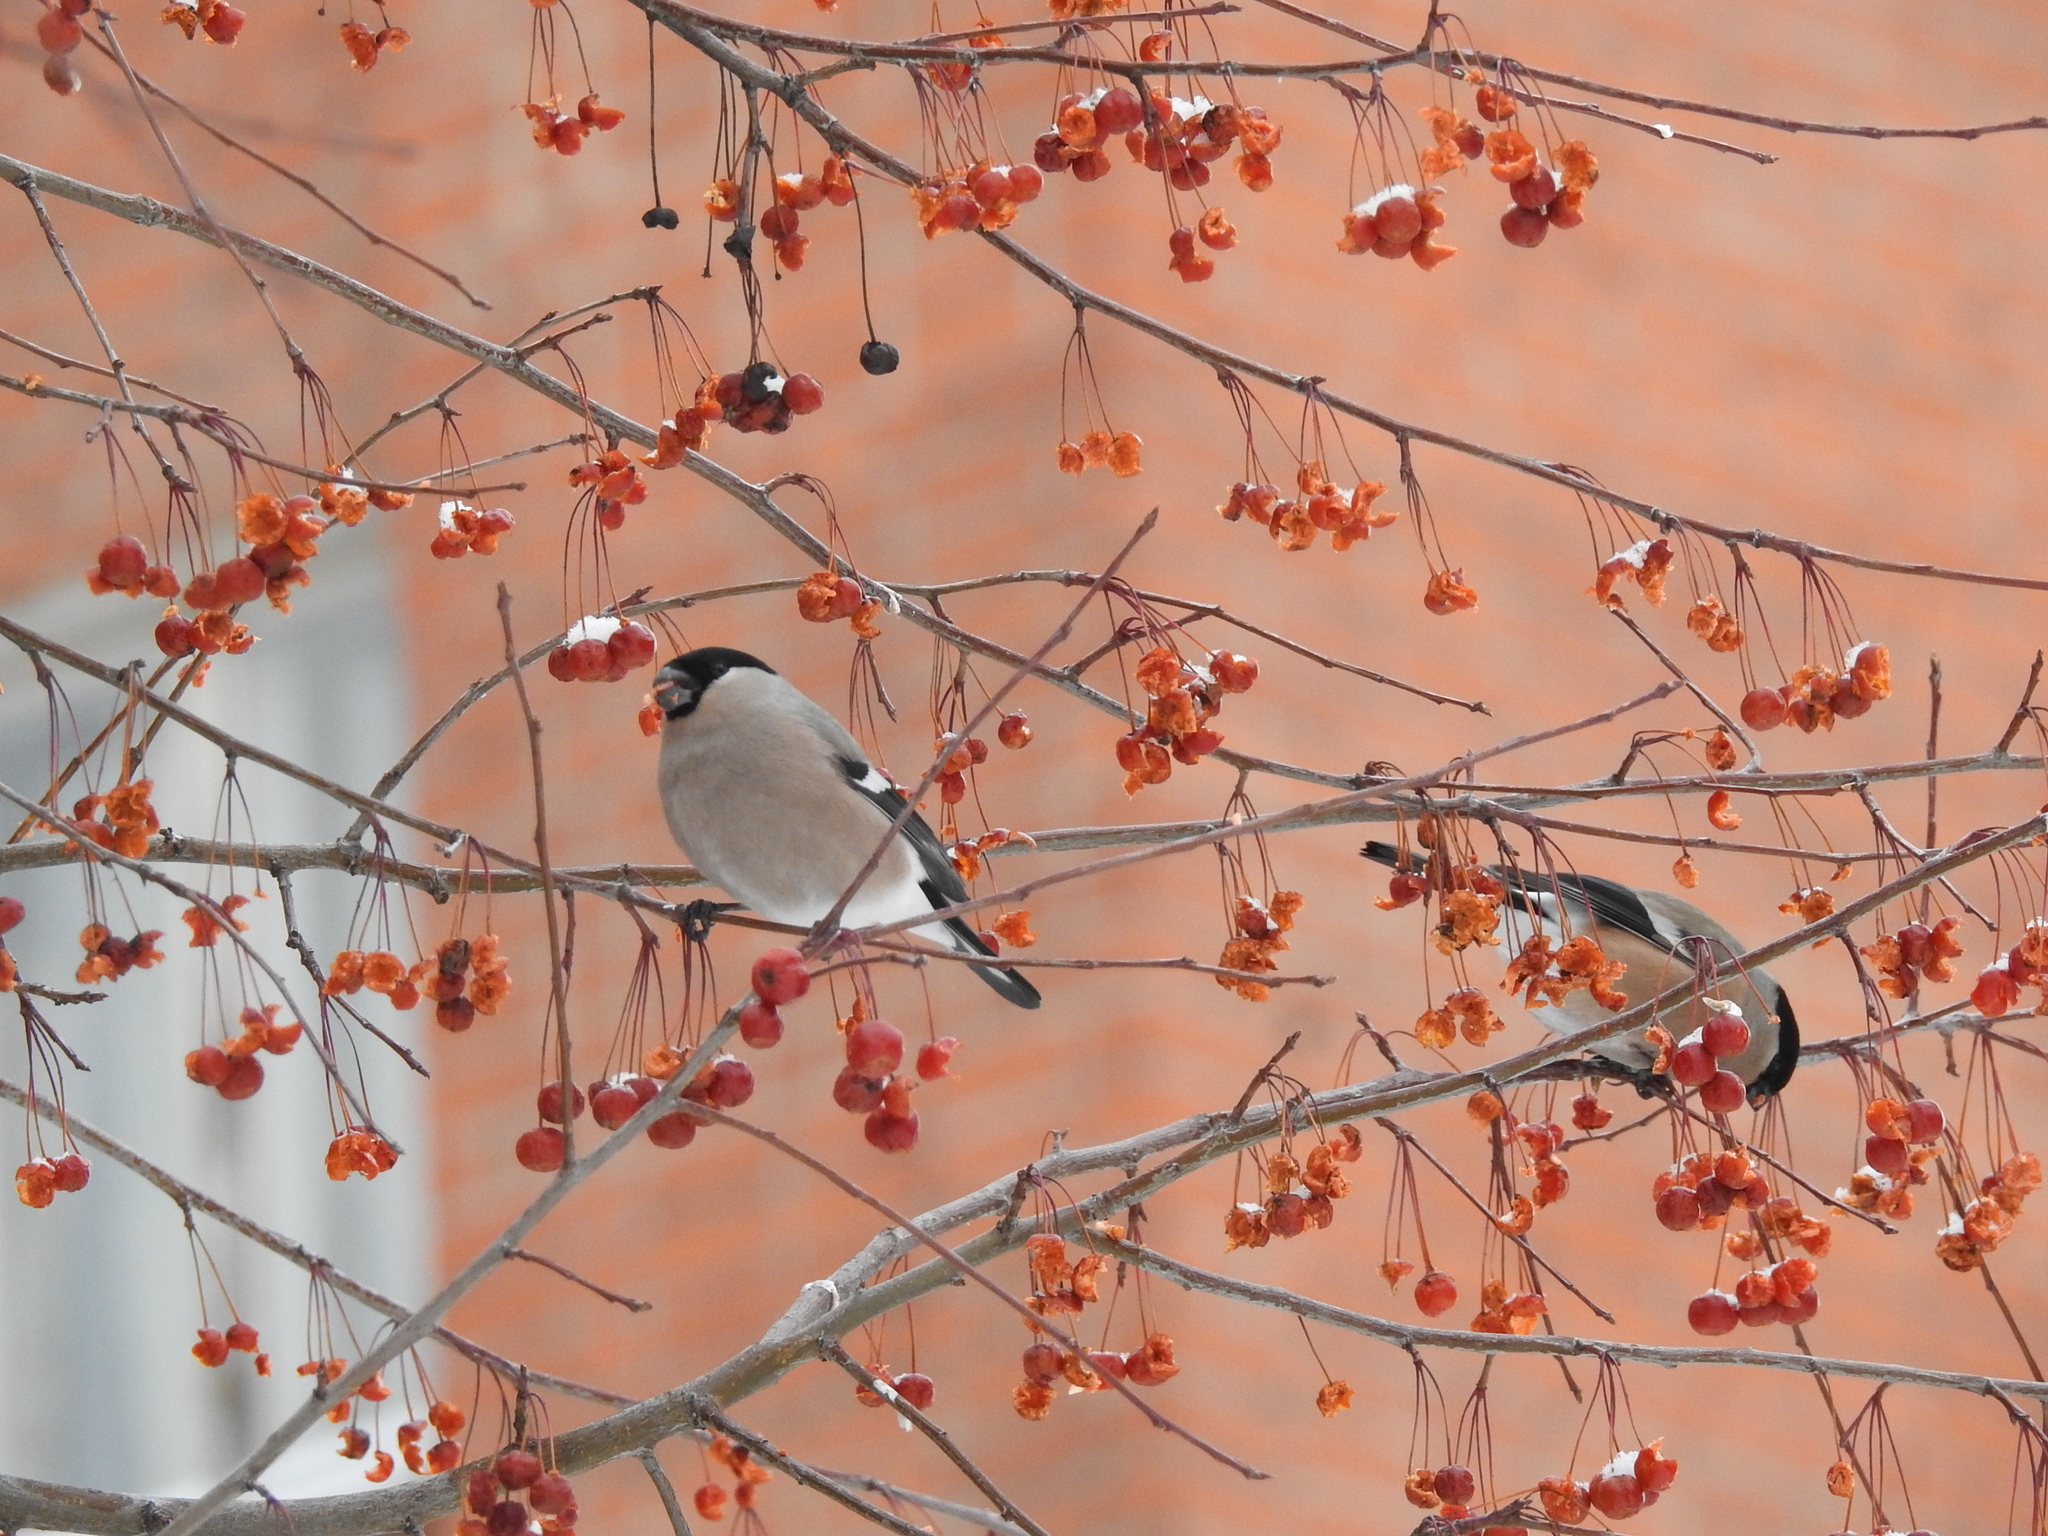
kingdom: Animalia
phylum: Chordata
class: Aves
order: Passeriformes
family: Fringillidae
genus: Pyrrhula
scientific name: Pyrrhula pyrrhula
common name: Eurasian bullfinch
